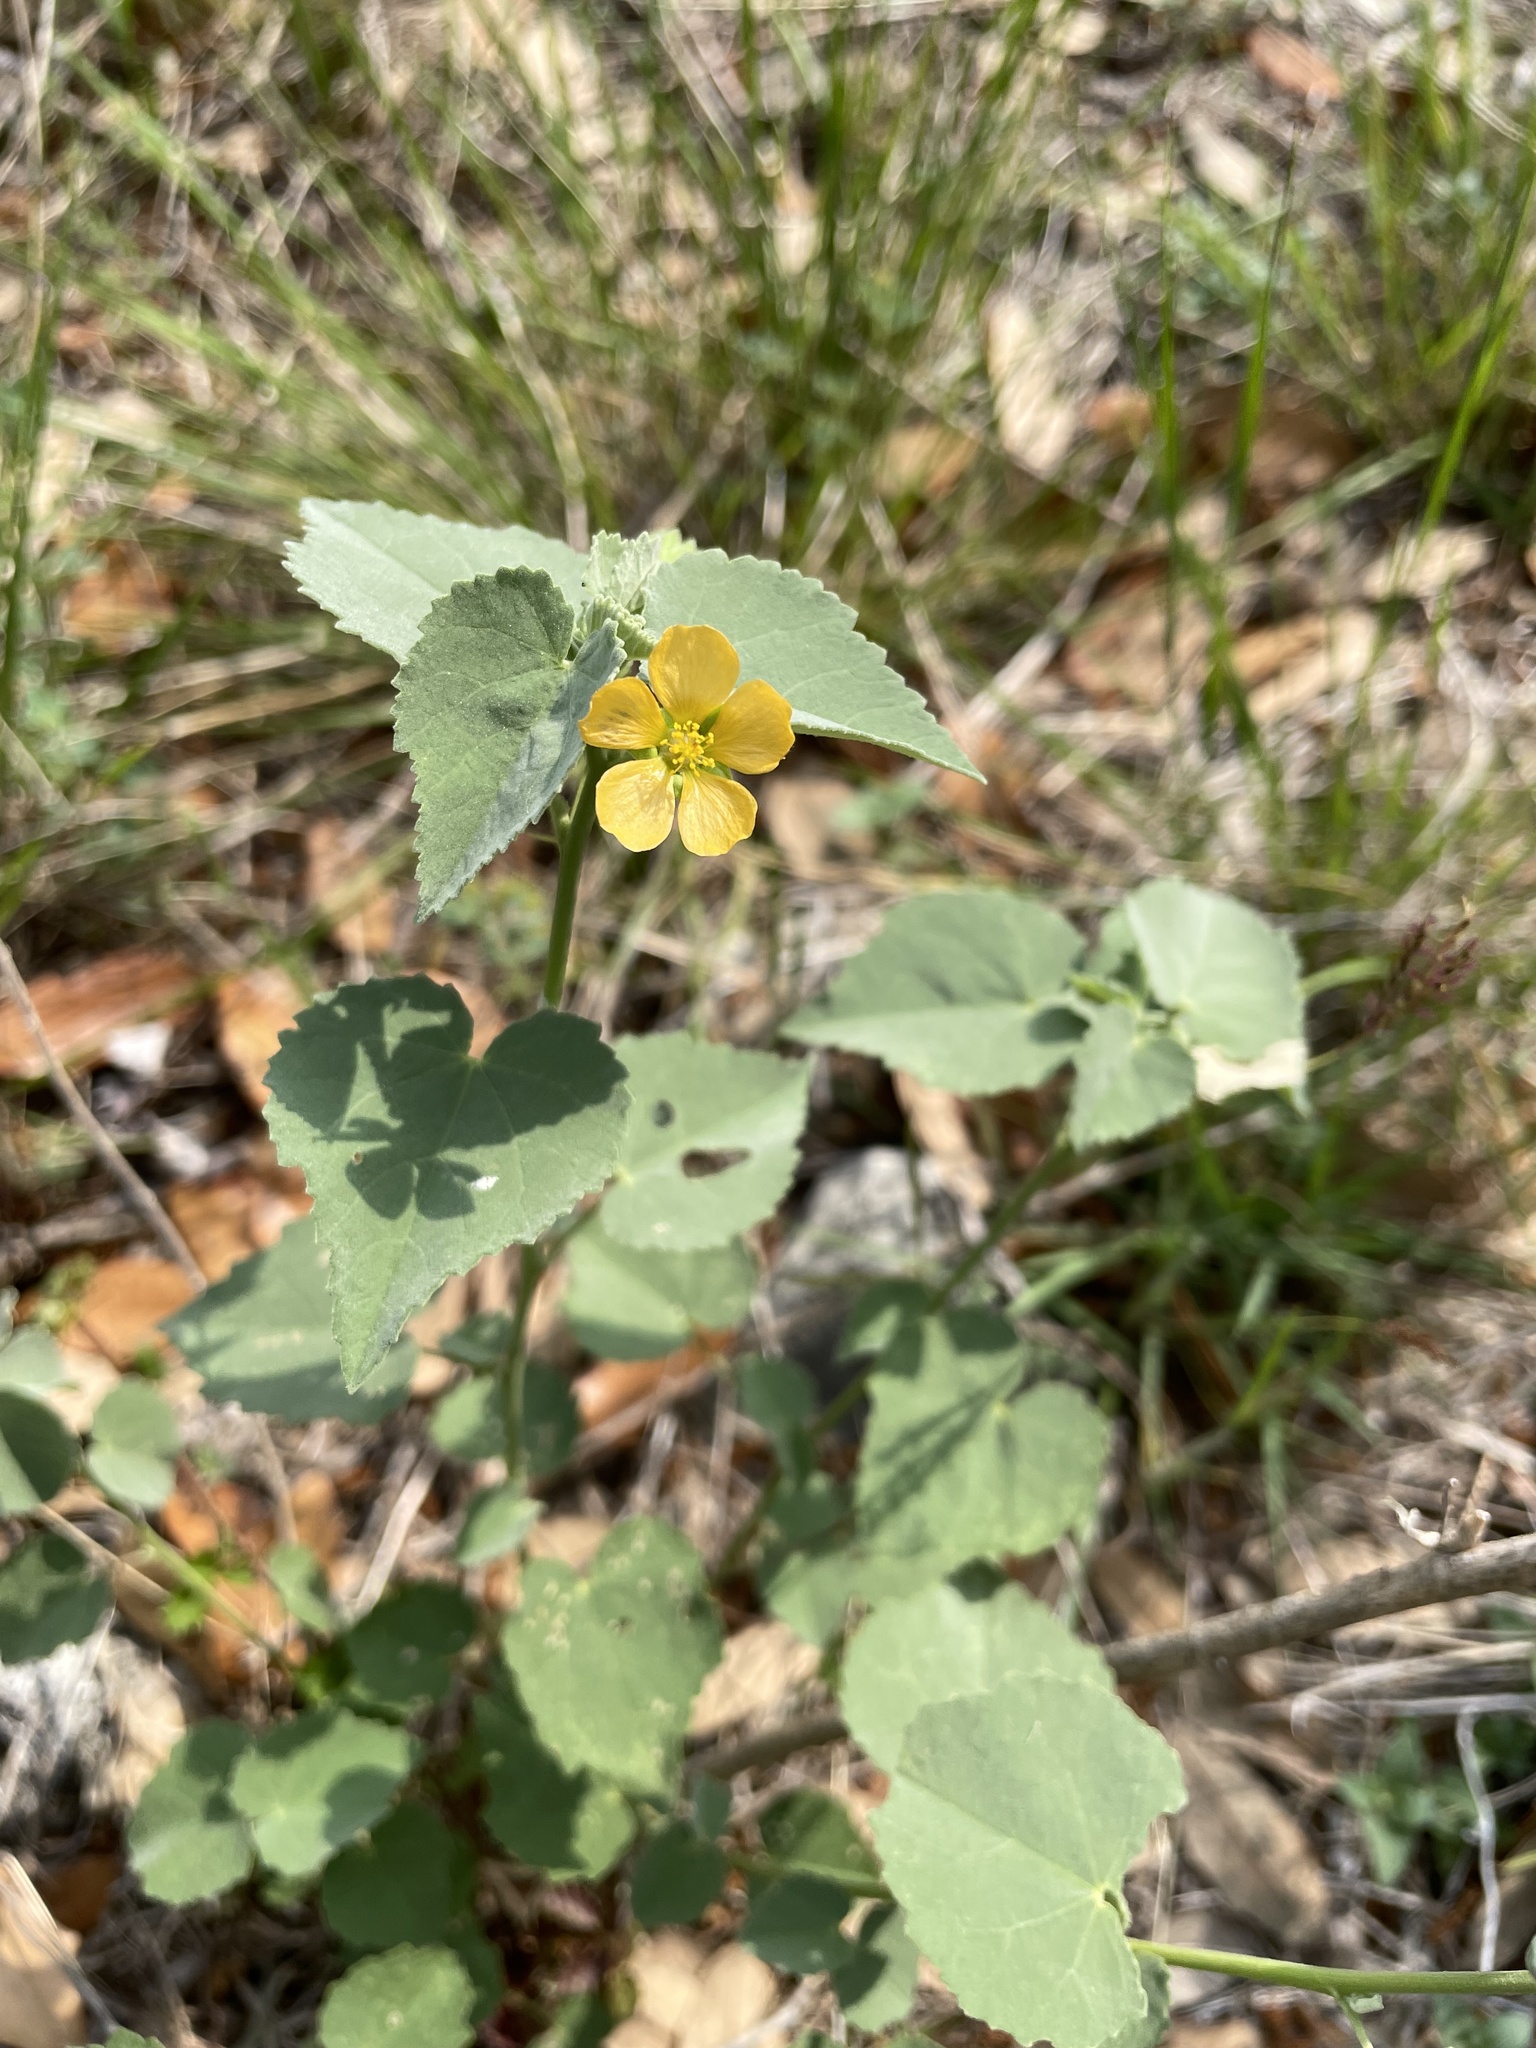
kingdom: Plantae
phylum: Tracheophyta
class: Magnoliopsida
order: Malvales
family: Malvaceae
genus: Abutilon
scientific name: Abutilon fruticosum
